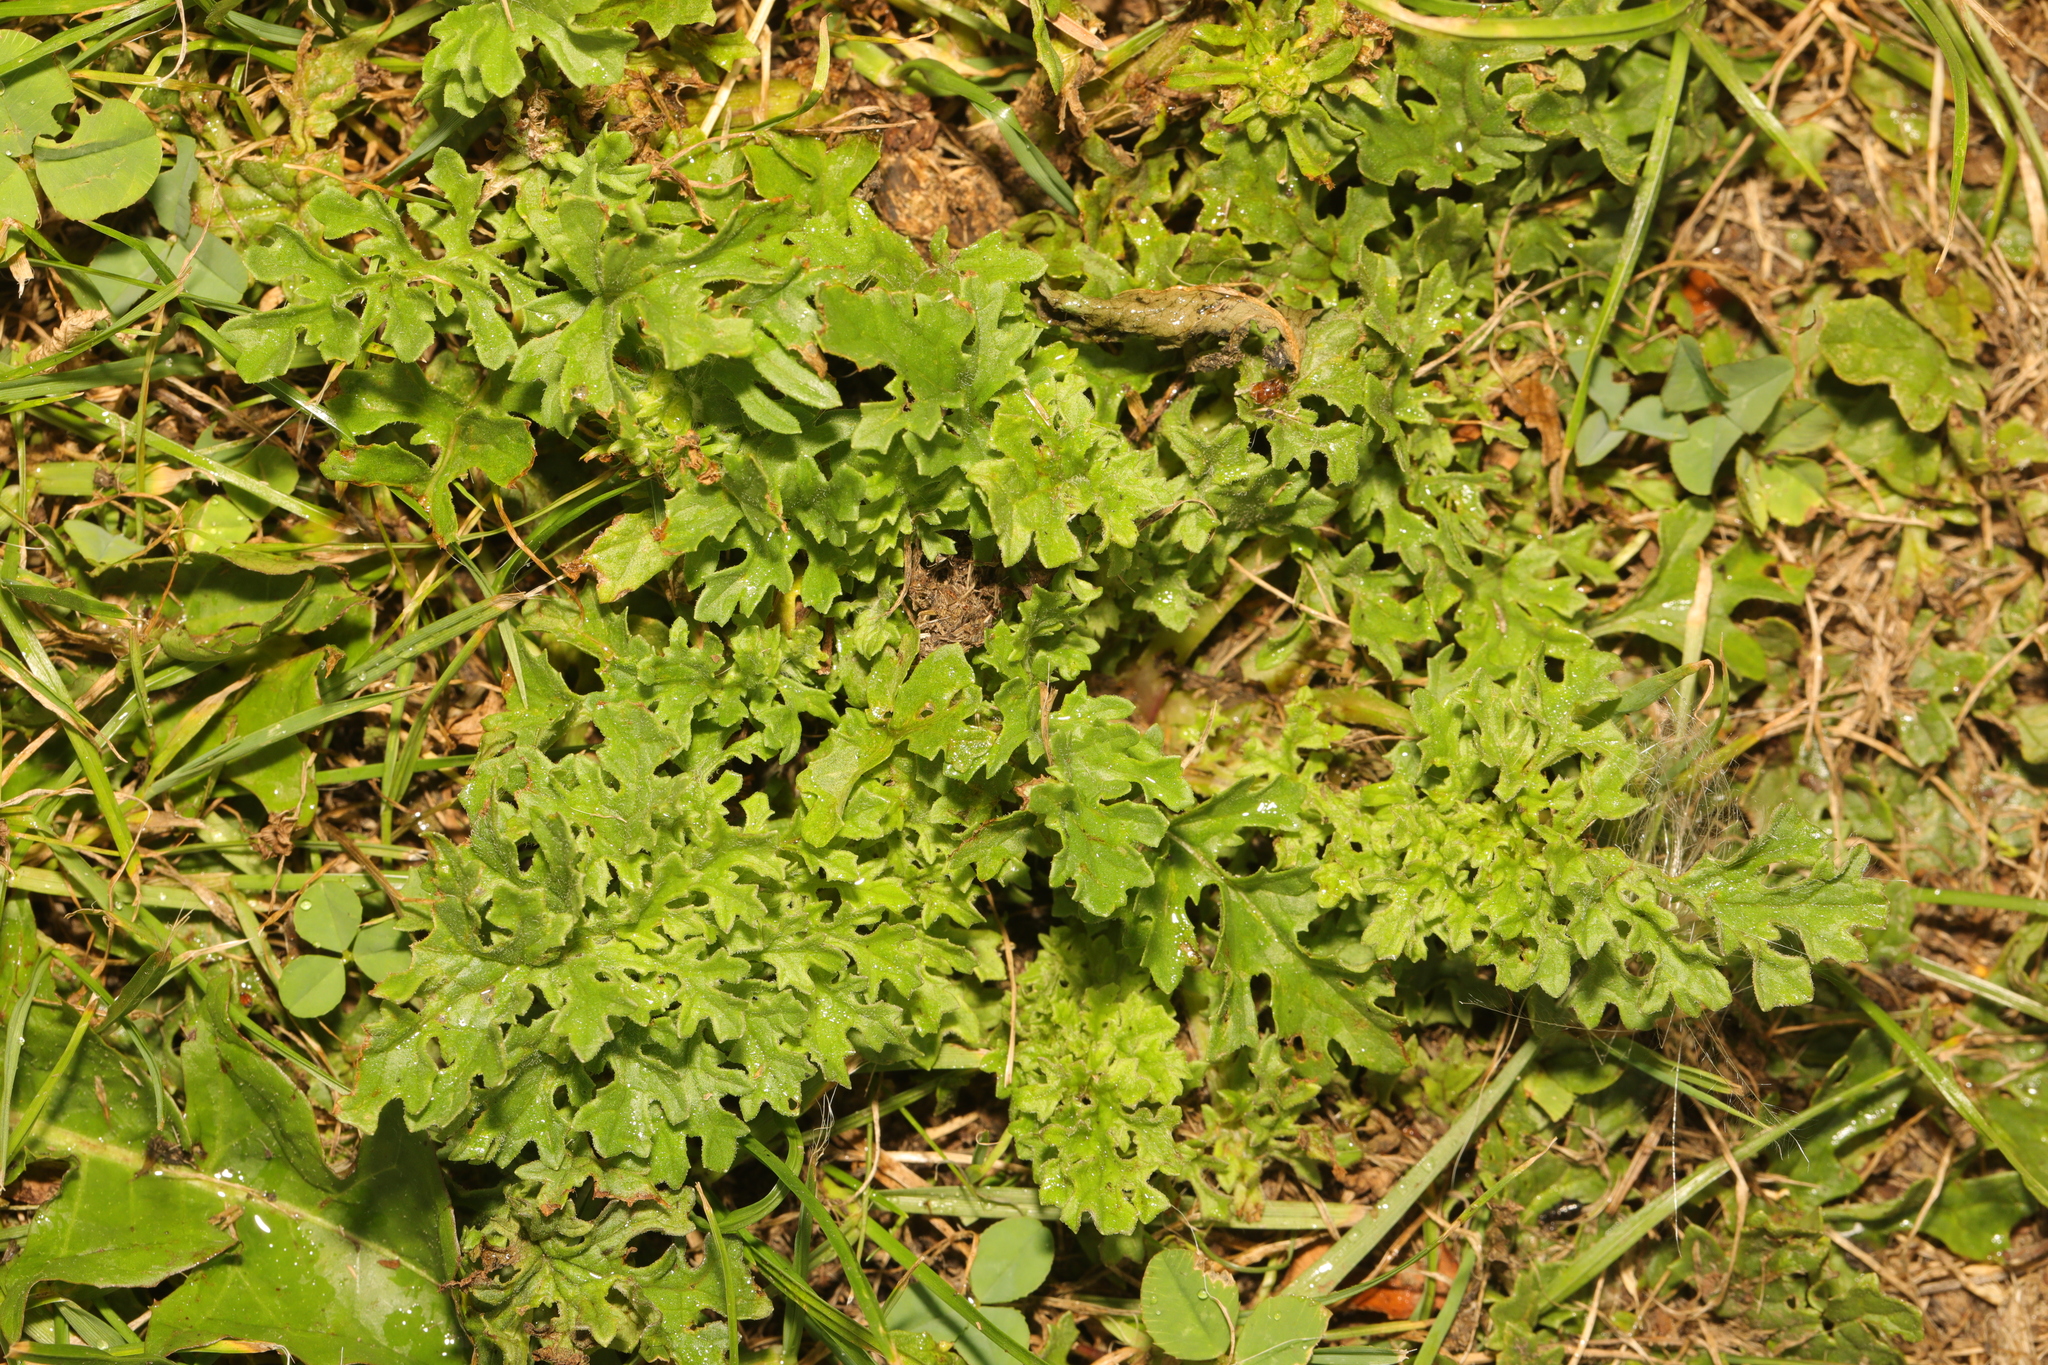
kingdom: Plantae
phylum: Tracheophyta
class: Magnoliopsida
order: Asterales
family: Asteraceae
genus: Jacobaea
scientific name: Jacobaea vulgaris
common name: Stinking willie
